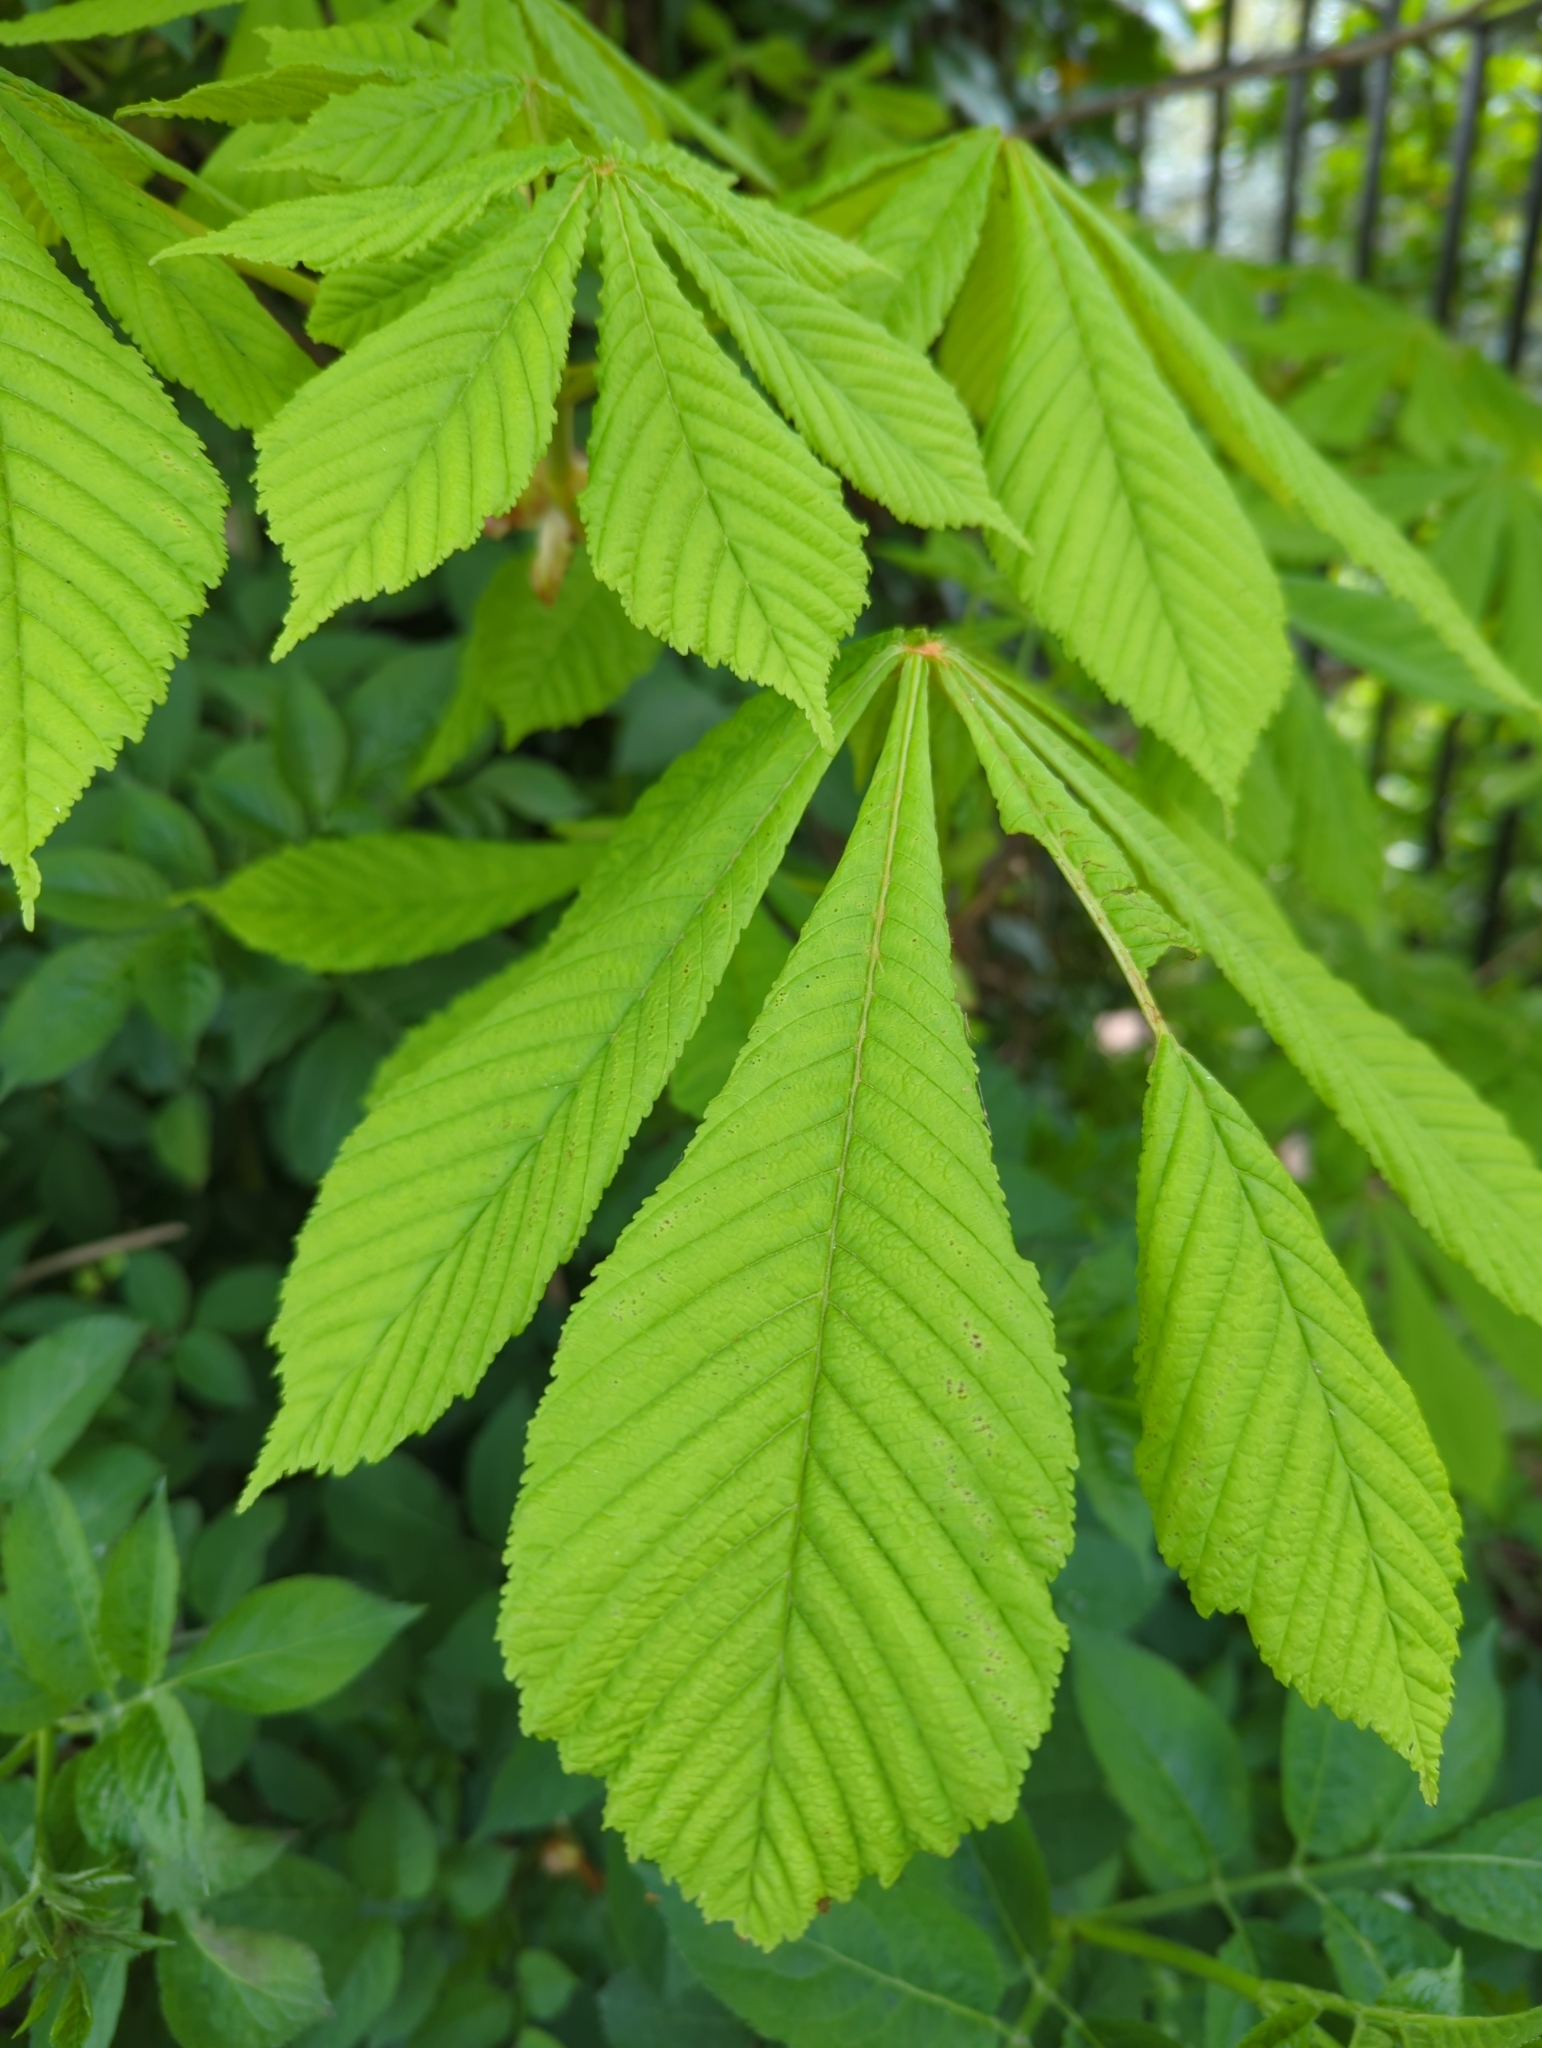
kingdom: Plantae
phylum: Tracheophyta
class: Magnoliopsida
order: Sapindales
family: Sapindaceae
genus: Aesculus
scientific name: Aesculus hippocastanum
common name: Horse-chestnut
